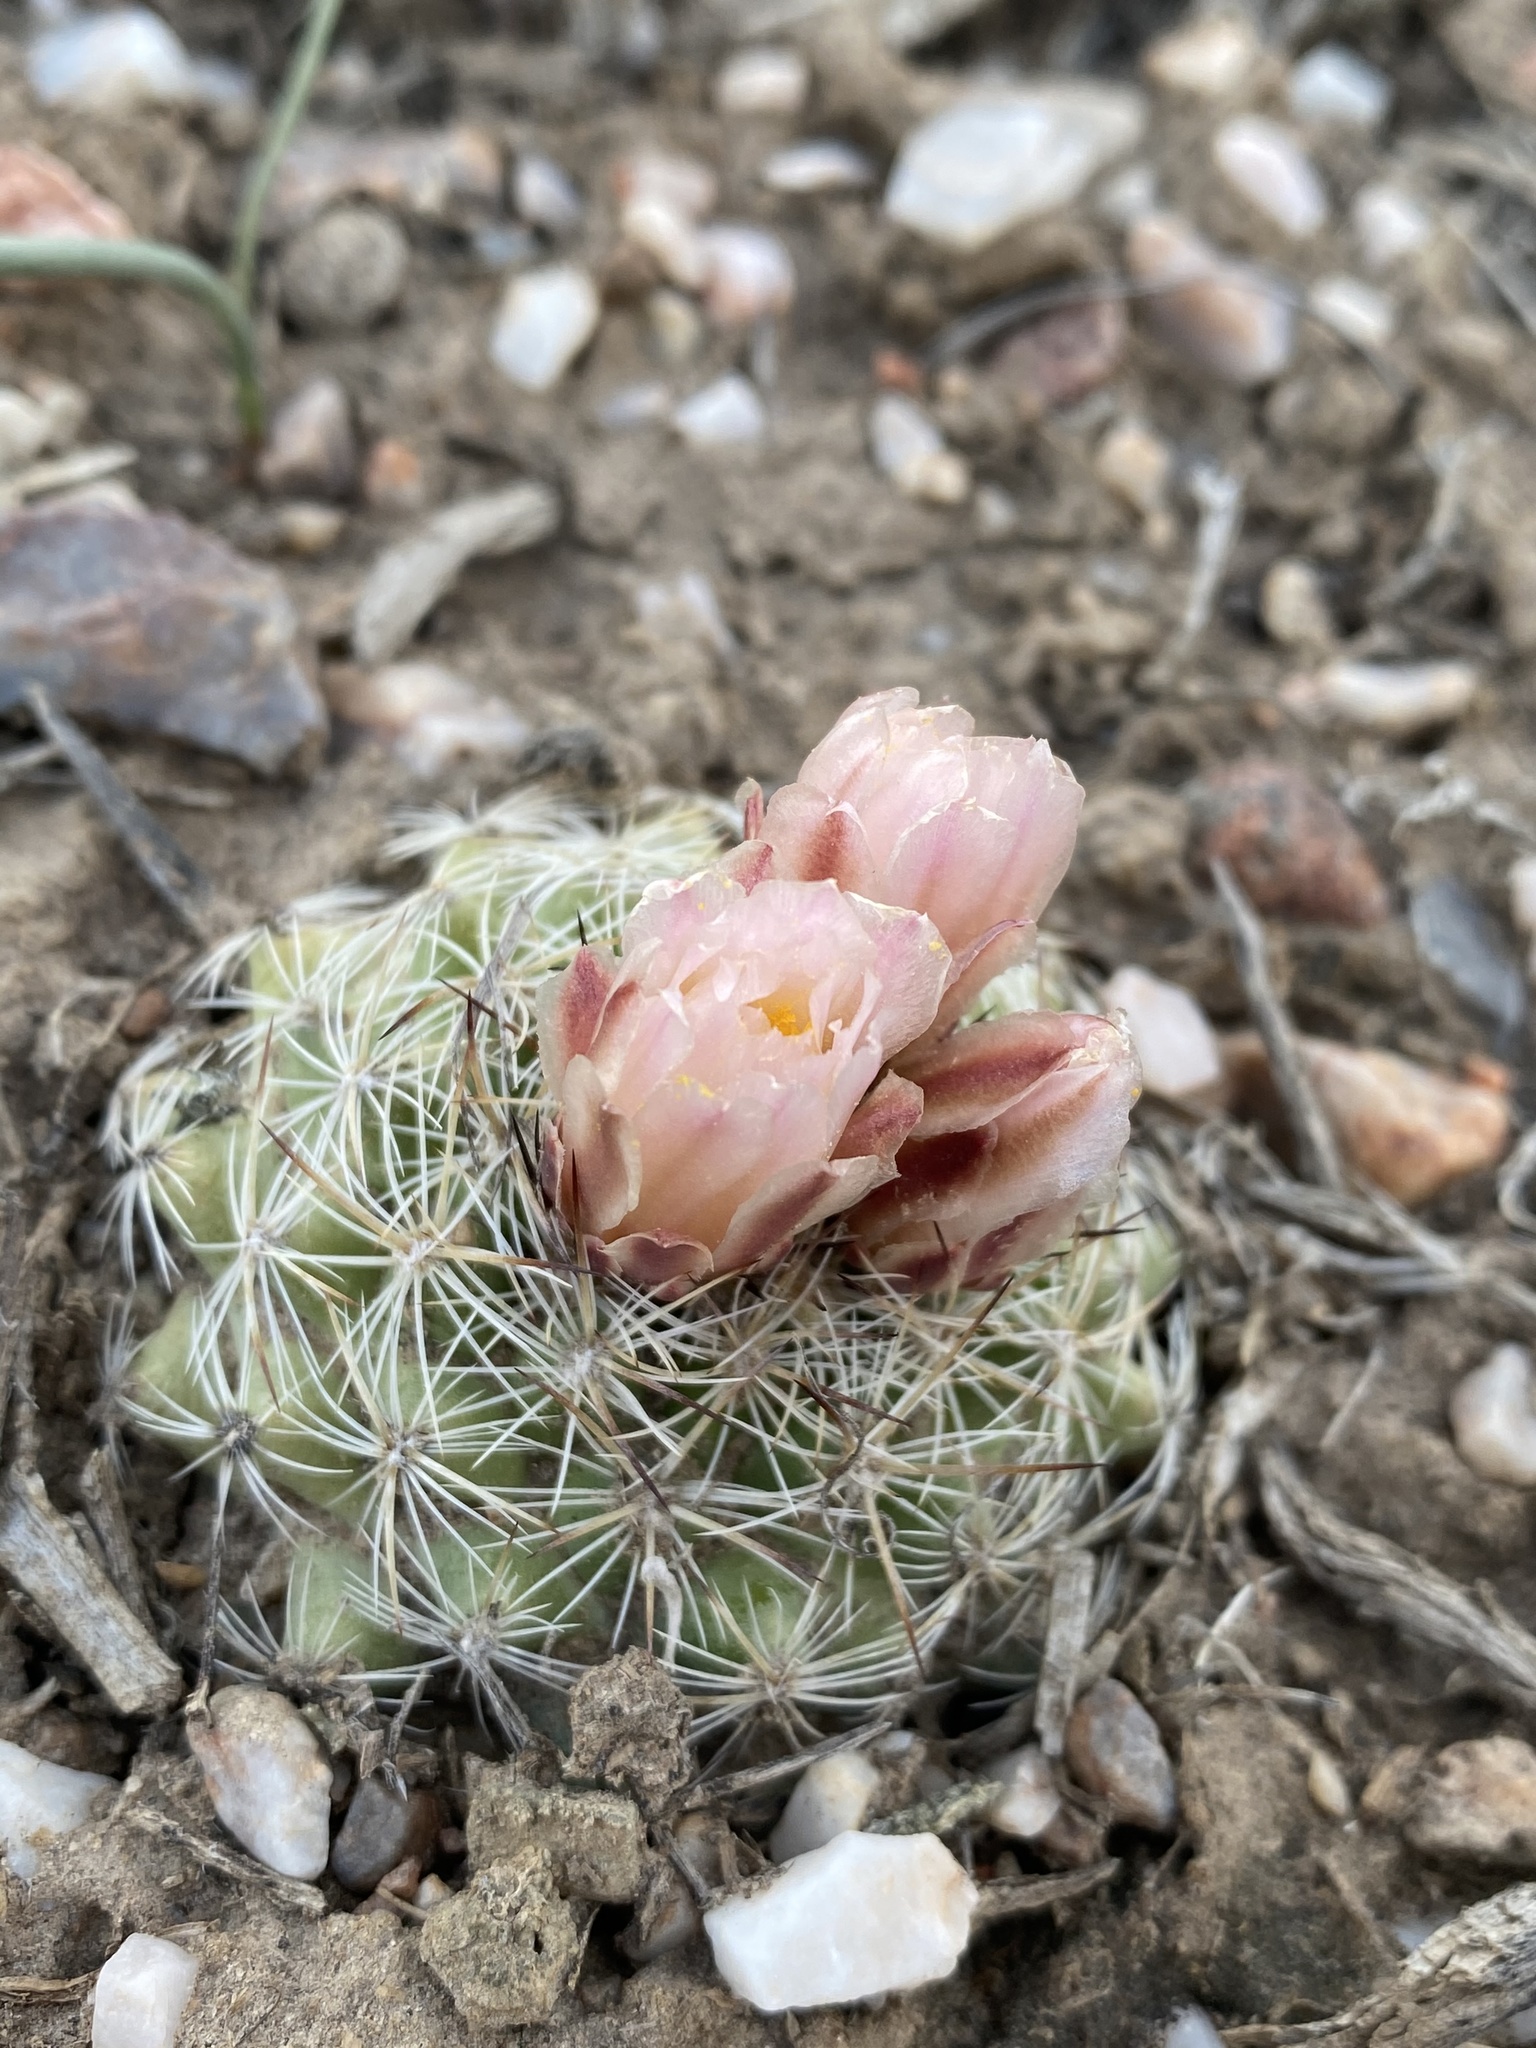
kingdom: Plantae
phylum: Tracheophyta
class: Magnoliopsida
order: Caryophyllales
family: Cactaceae
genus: Pediocactus
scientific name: Pediocactus simpsonii
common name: Simpson's hedgehog cactus
